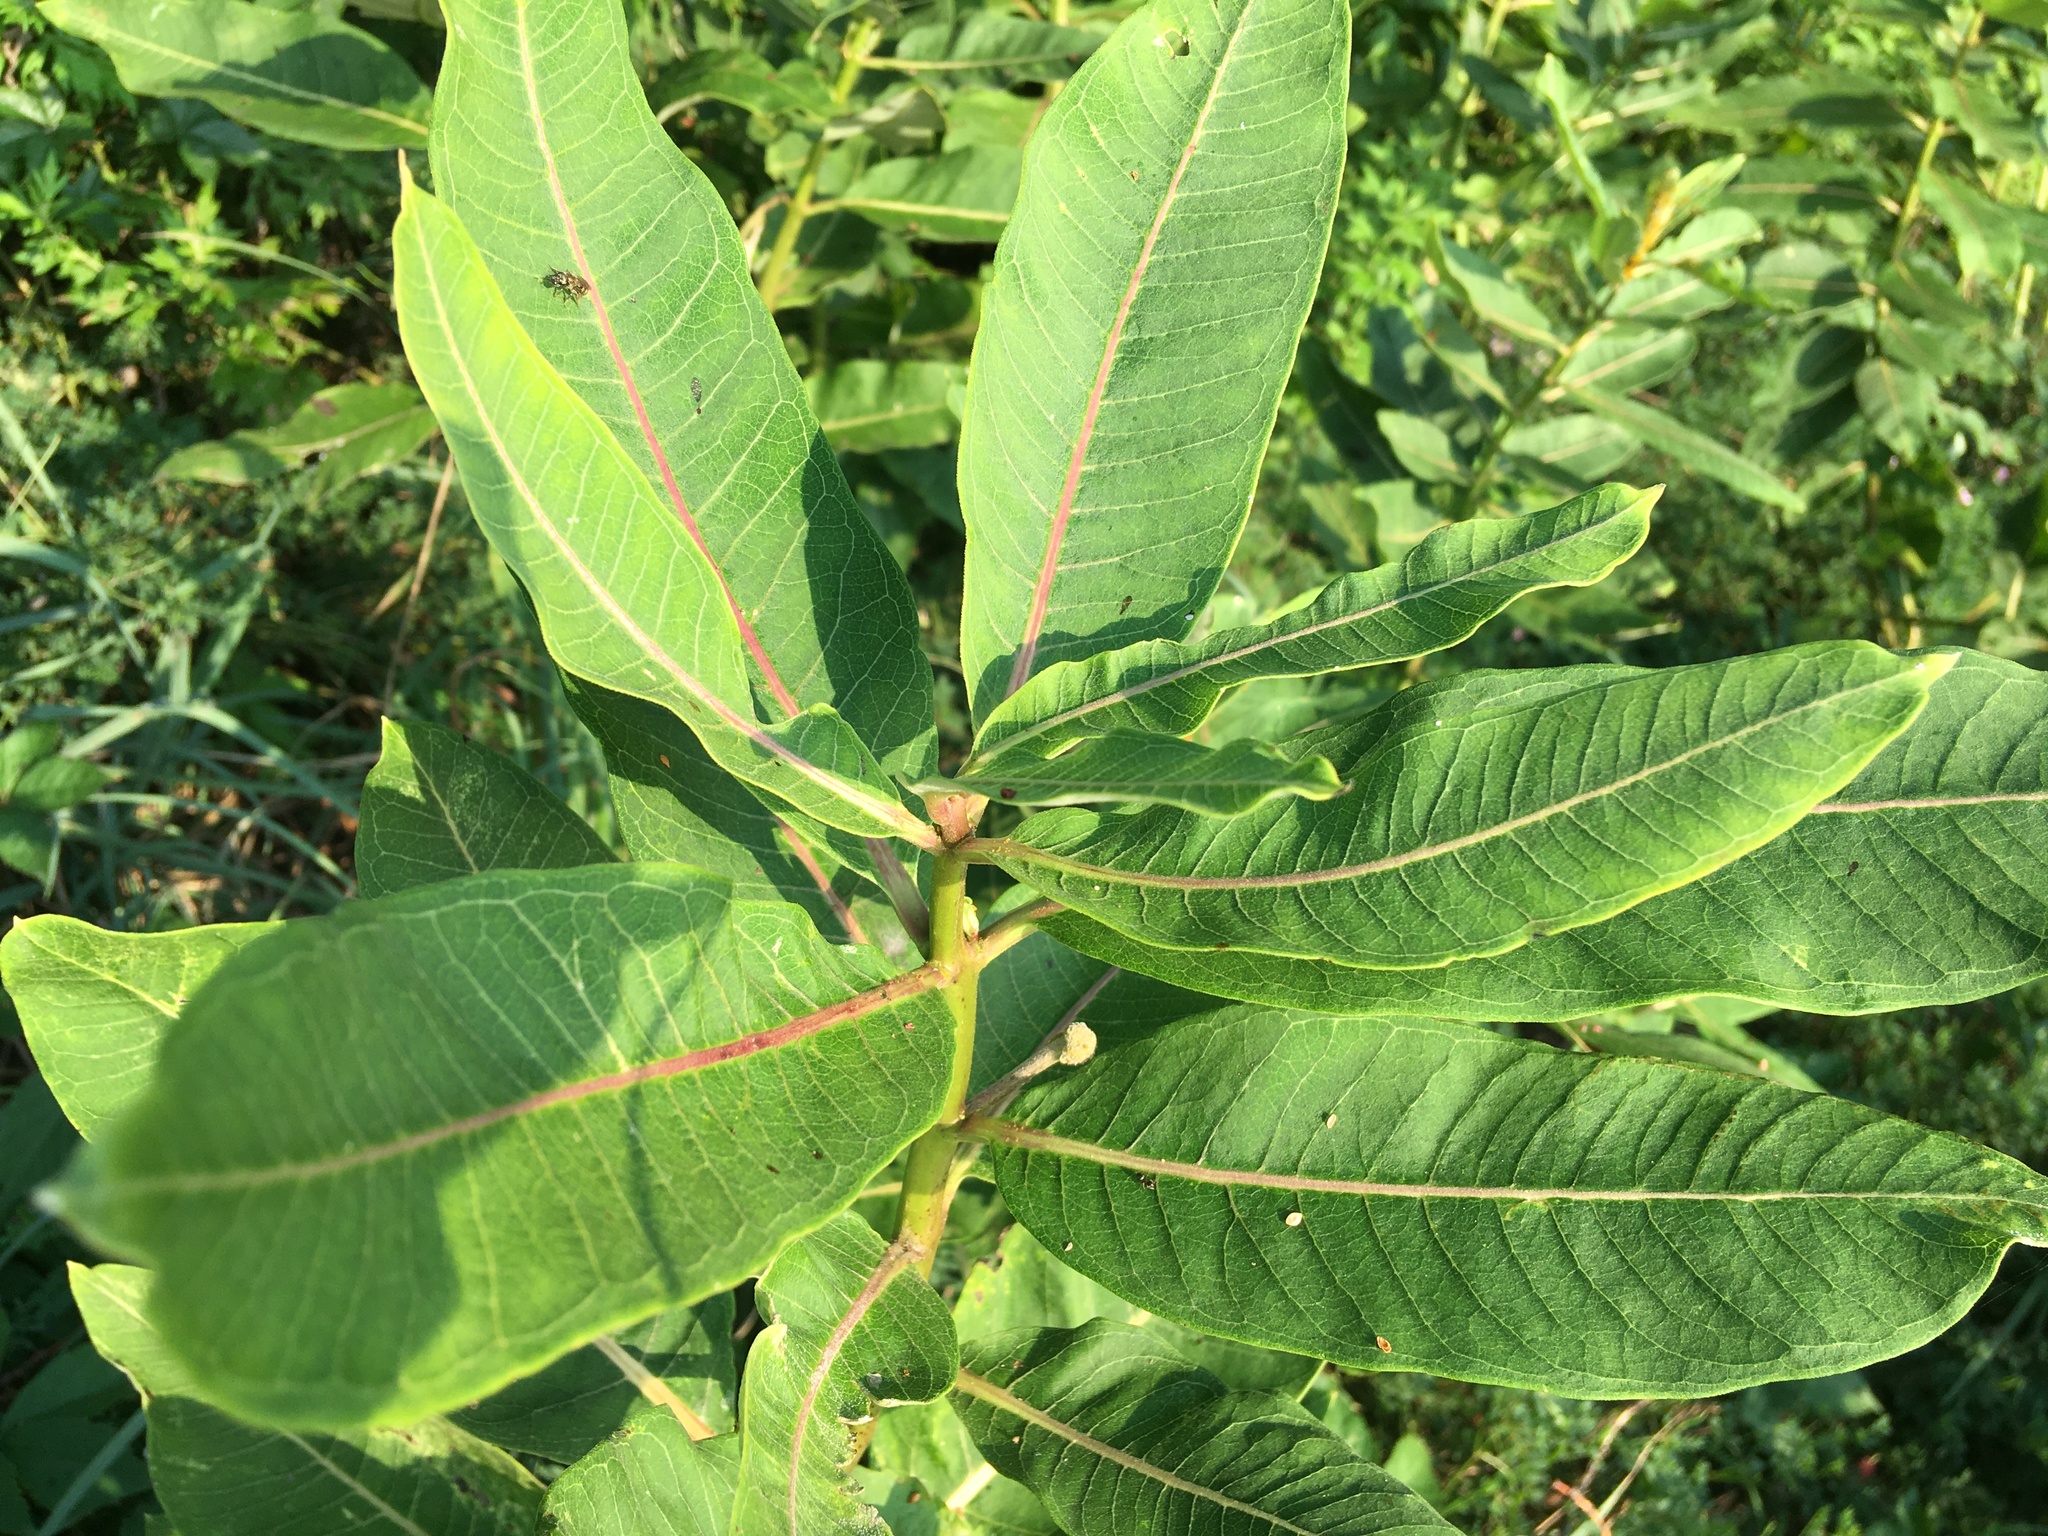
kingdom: Plantae
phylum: Tracheophyta
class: Magnoliopsida
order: Gentianales
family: Apocynaceae
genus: Asclepias
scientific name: Asclepias syriaca
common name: Common milkweed
